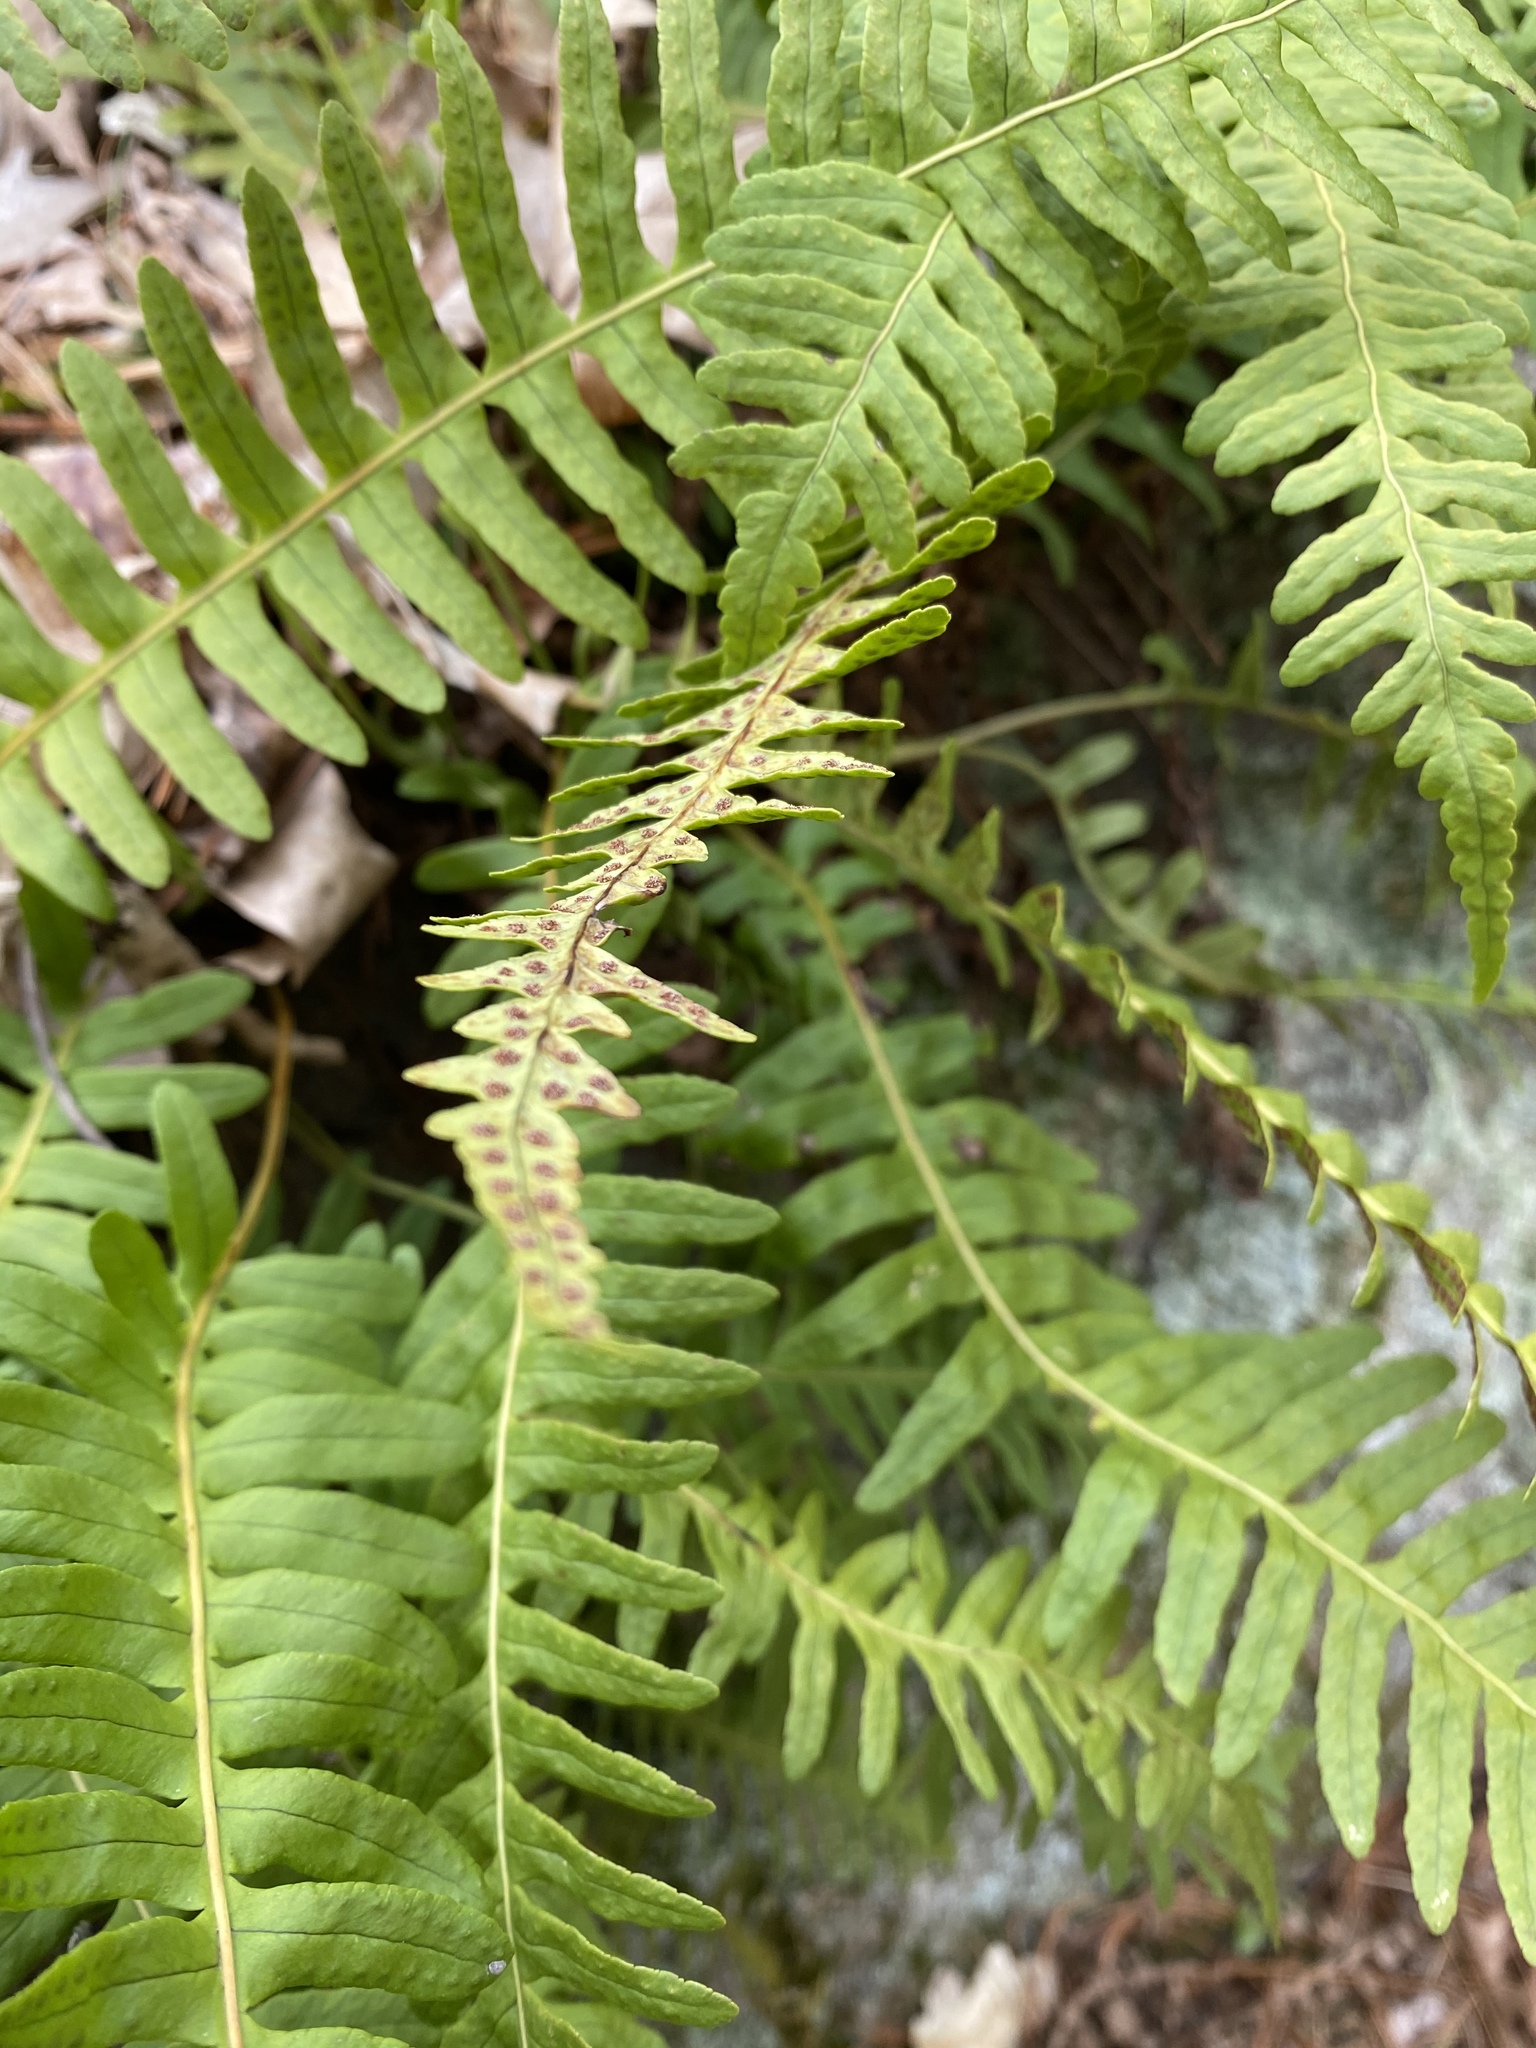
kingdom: Plantae
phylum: Tracheophyta
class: Polypodiopsida
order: Polypodiales
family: Polypodiaceae
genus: Polypodium
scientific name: Polypodium virginianum
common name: American wall fern
